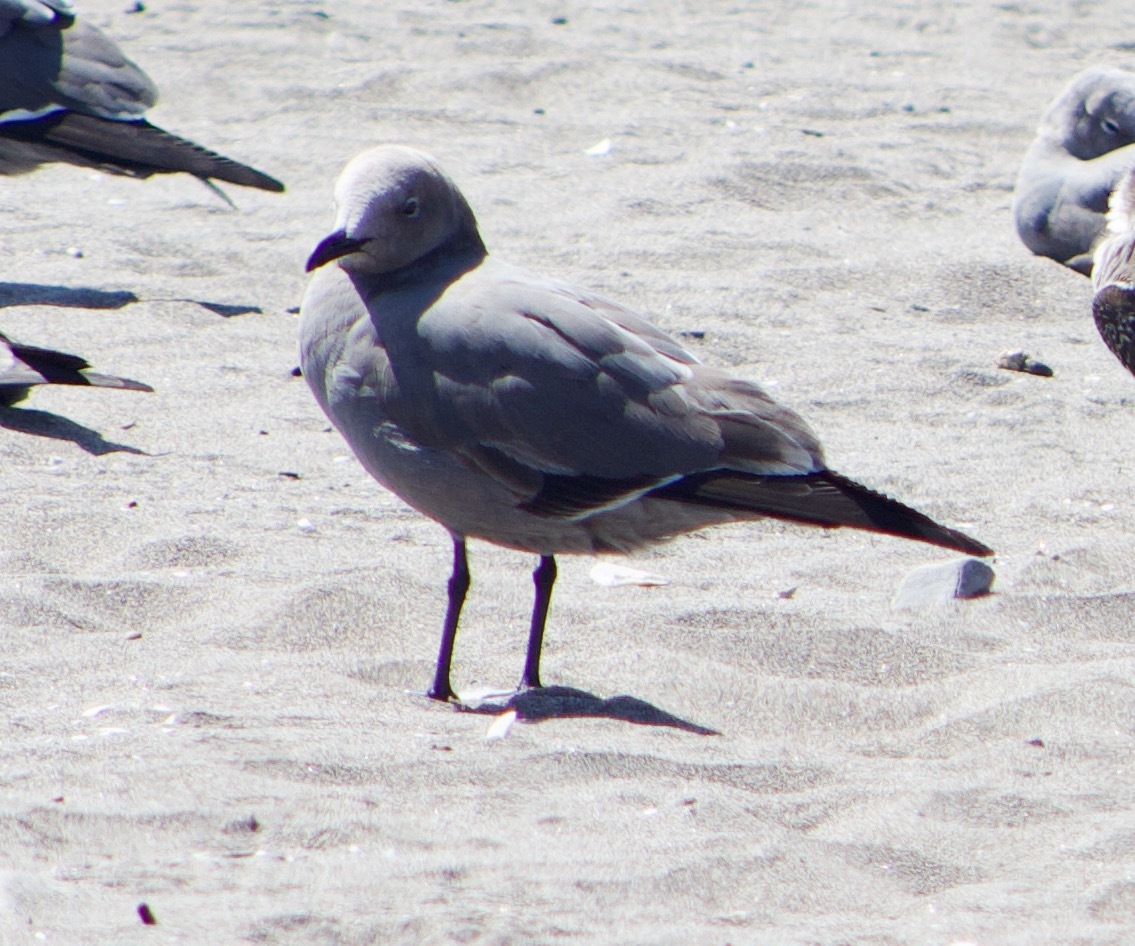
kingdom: Animalia
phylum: Chordata
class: Aves
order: Charadriiformes
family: Laridae
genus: Leucophaeus
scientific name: Leucophaeus modestus
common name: Gray gull
